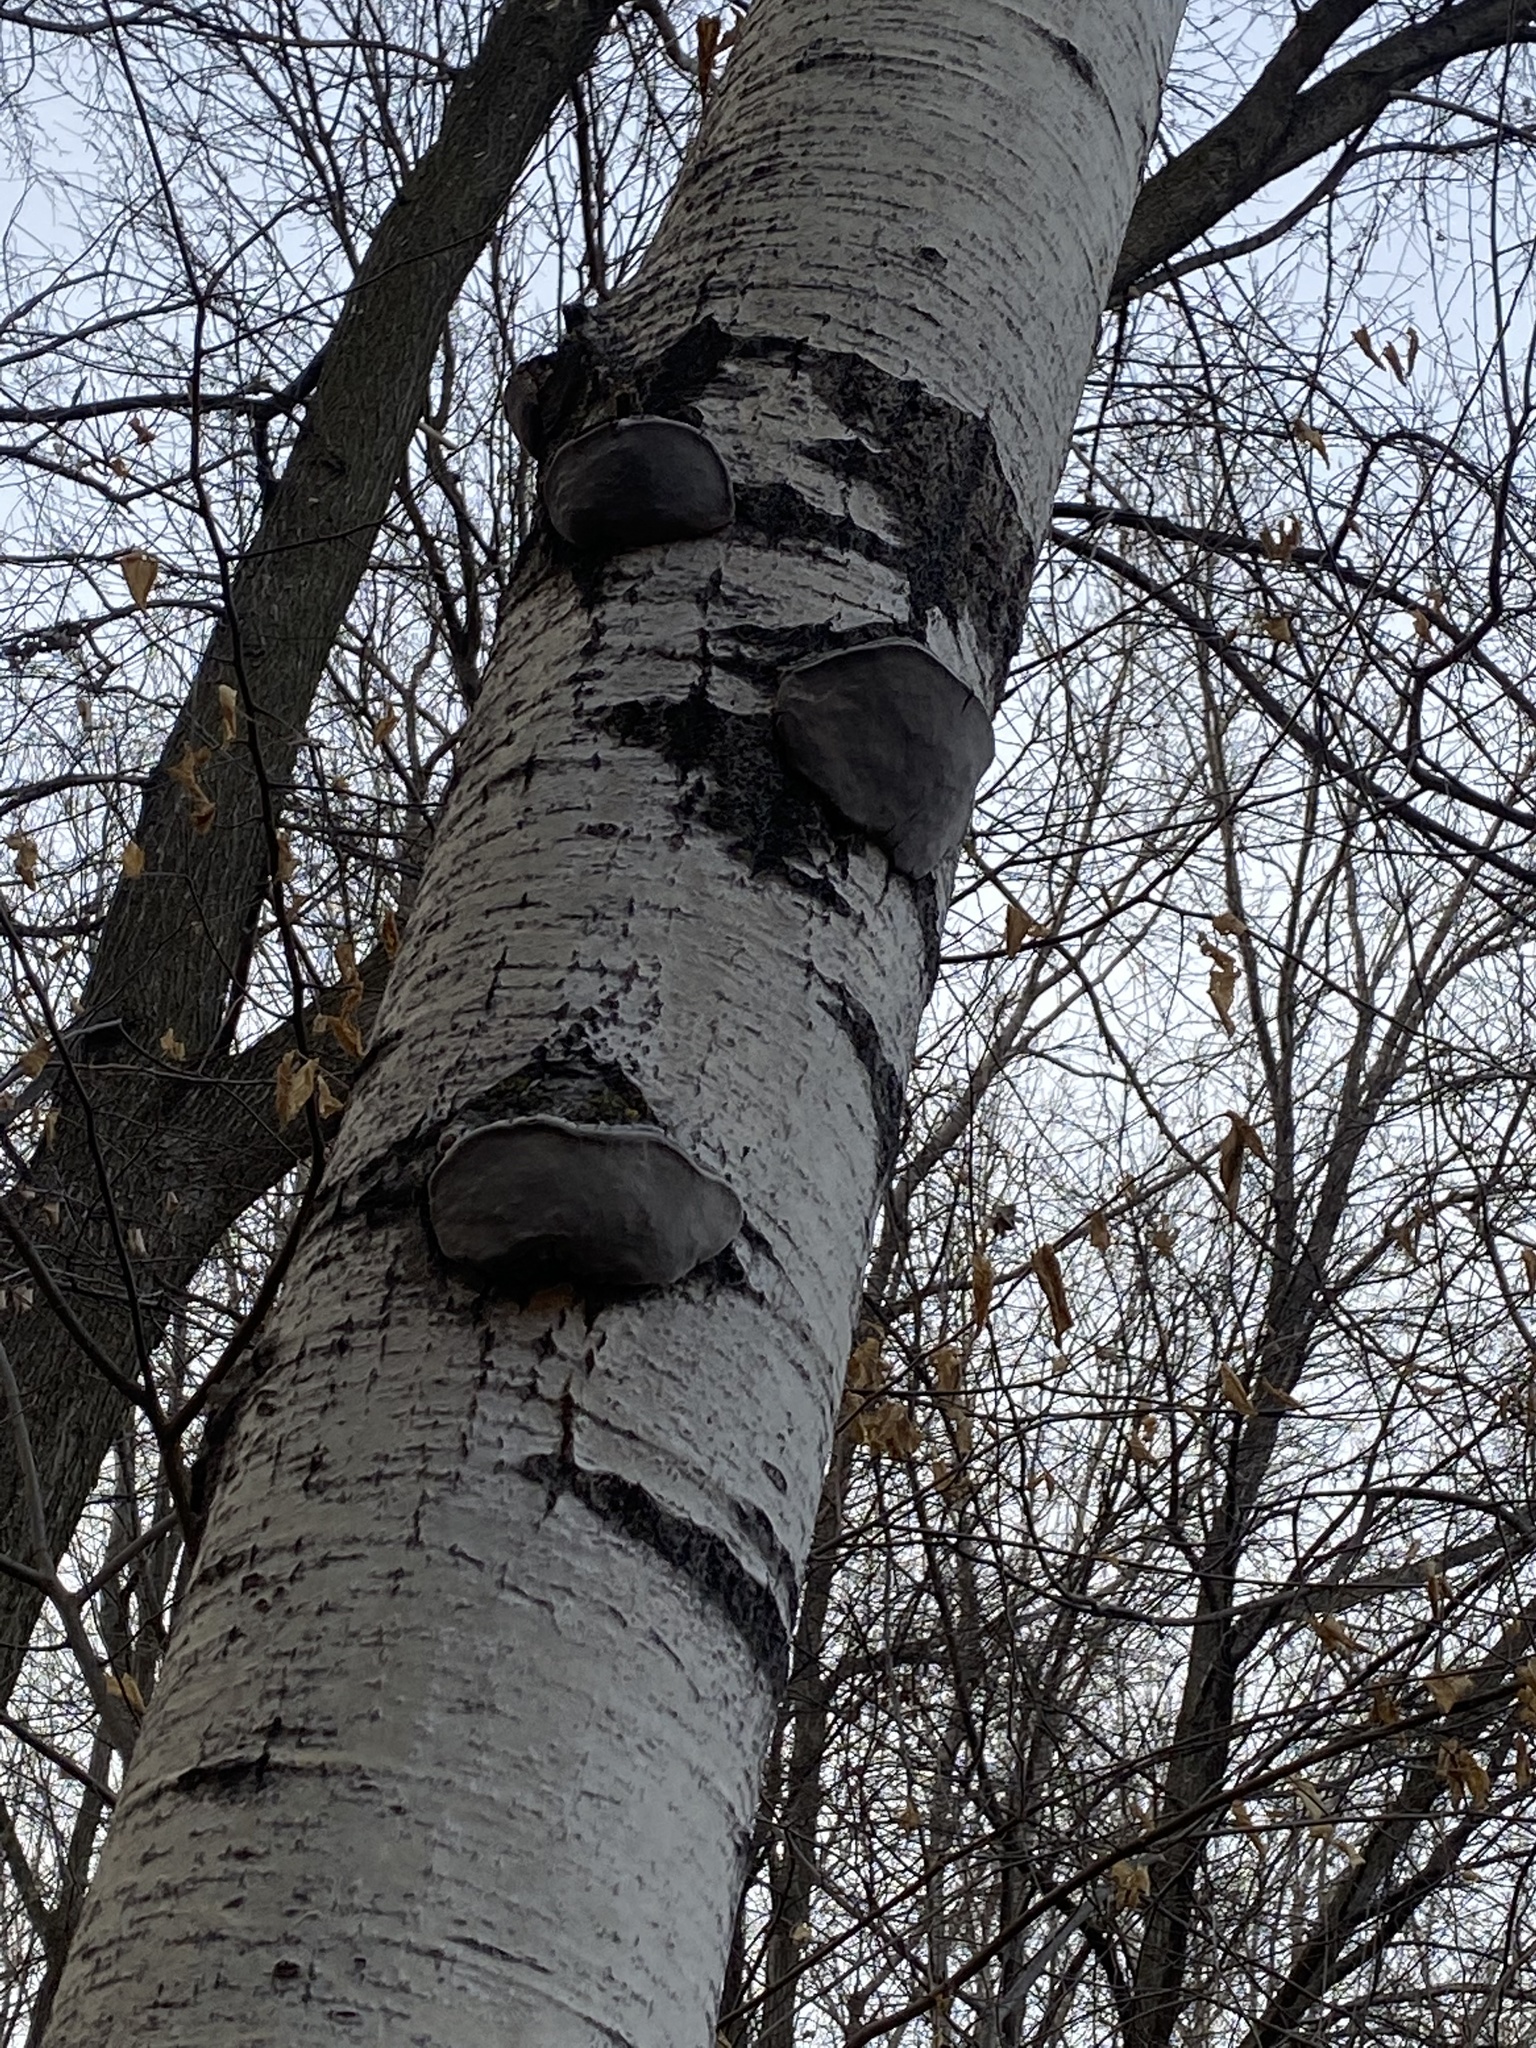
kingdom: Fungi
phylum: Basidiomycota
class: Agaricomycetes
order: Hymenochaetales
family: Hymenochaetaceae
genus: Phellinus
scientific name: Phellinus tremulae
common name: Aspen bracket
